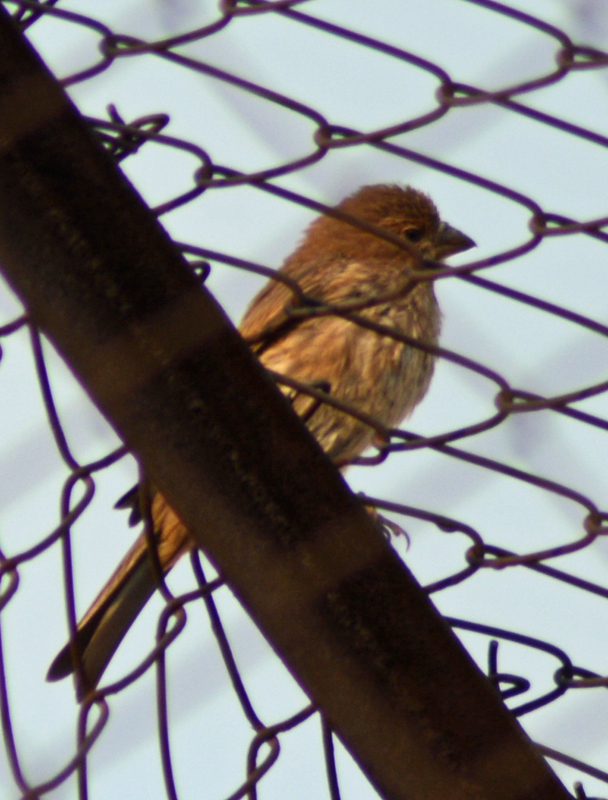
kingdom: Animalia
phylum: Chordata
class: Aves
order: Passeriformes
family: Fringillidae
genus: Haemorhous
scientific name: Haemorhous mexicanus
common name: House finch
